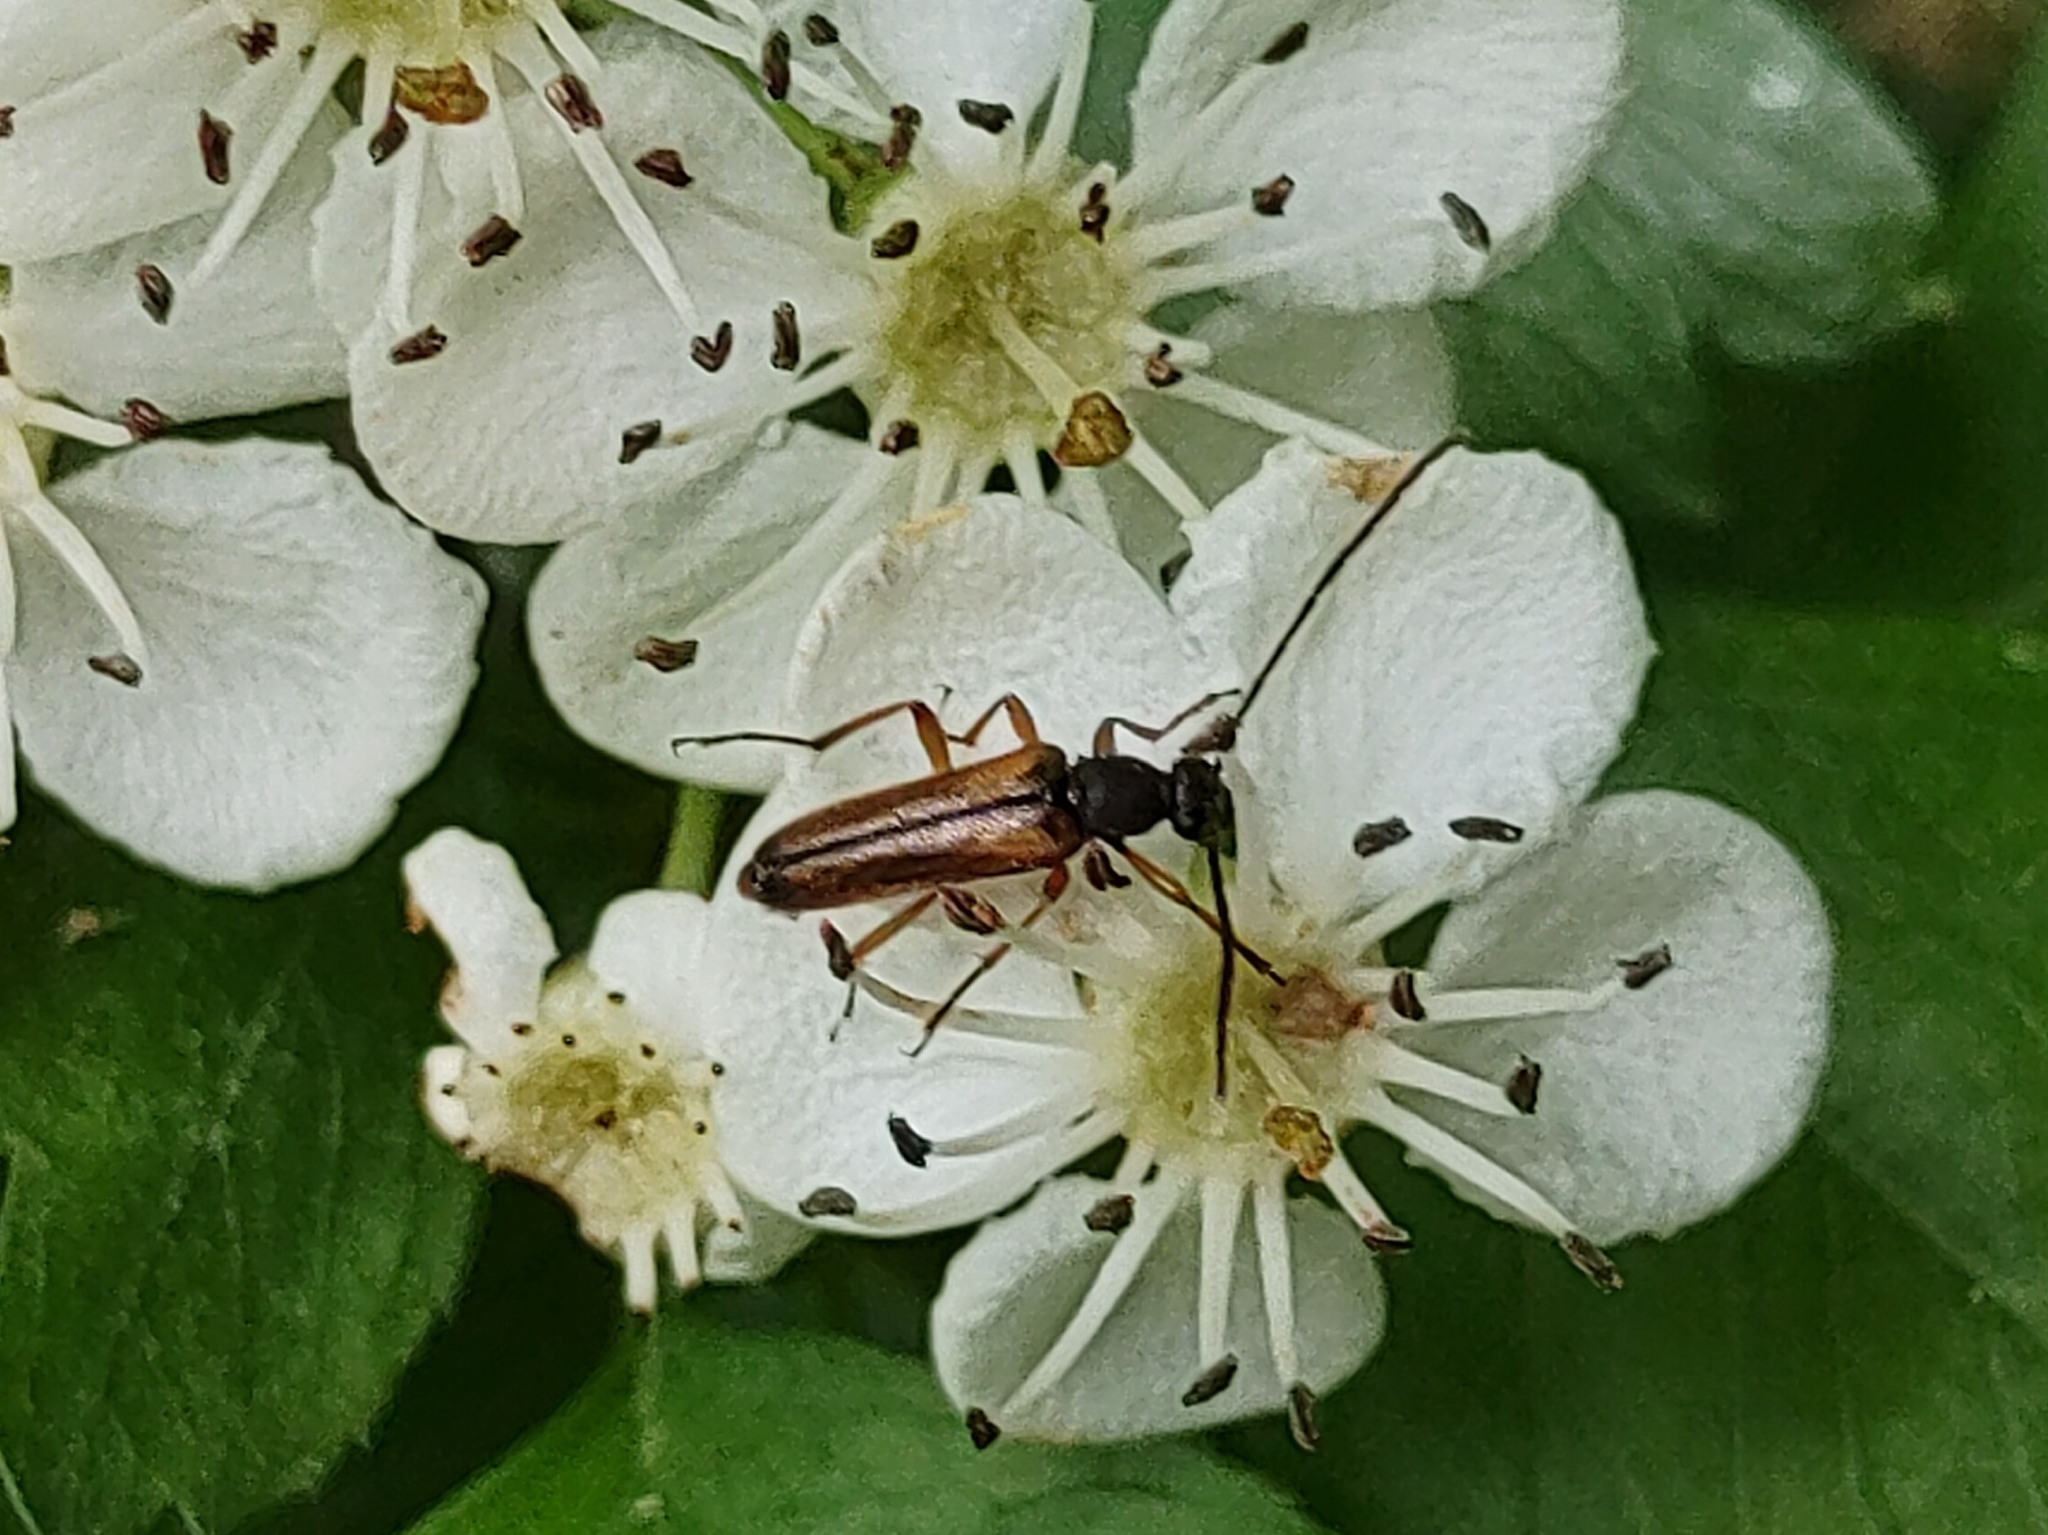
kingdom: Animalia
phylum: Arthropoda
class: Insecta
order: Coleoptera
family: Cerambycidae
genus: Alosterna
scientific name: Alosterna tabacicolor
